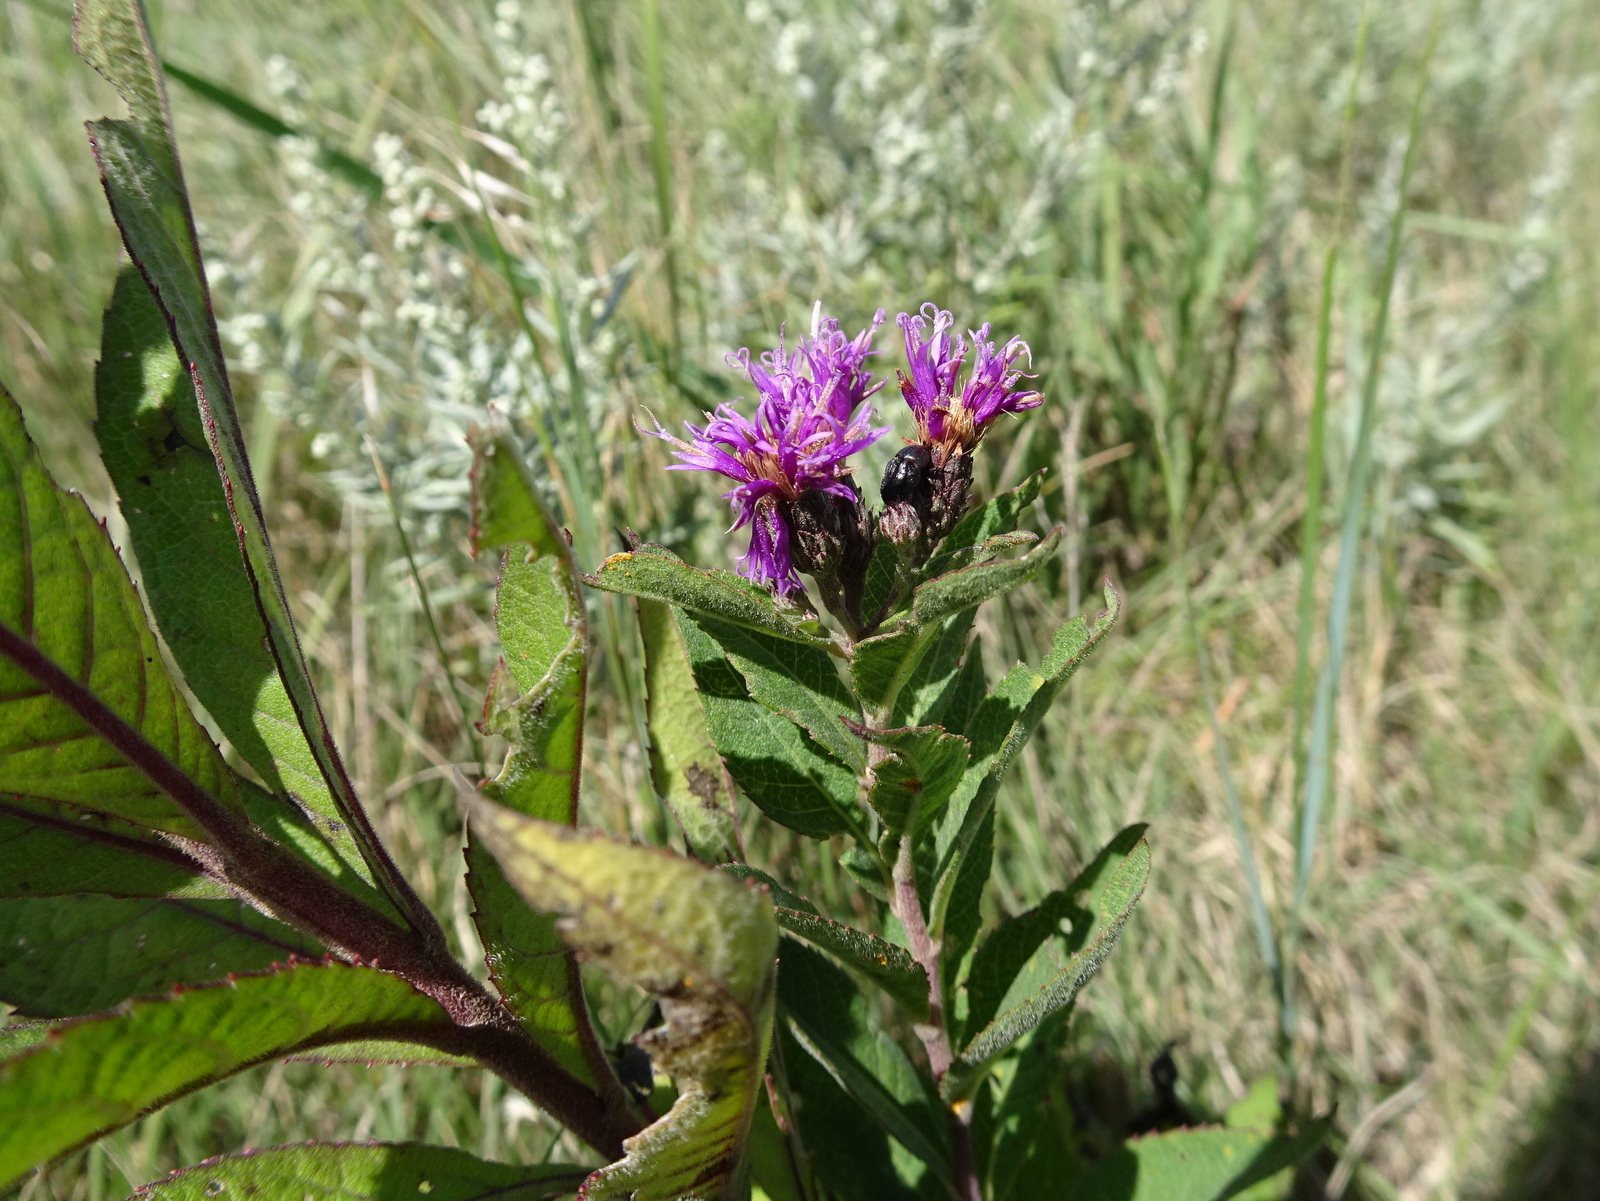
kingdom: Plantae
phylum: Tracheophyta
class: Magnoliopsida
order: Asterales
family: Asteraceae
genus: Vernonia
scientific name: Vernonia baldwinii
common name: Western ironweed
